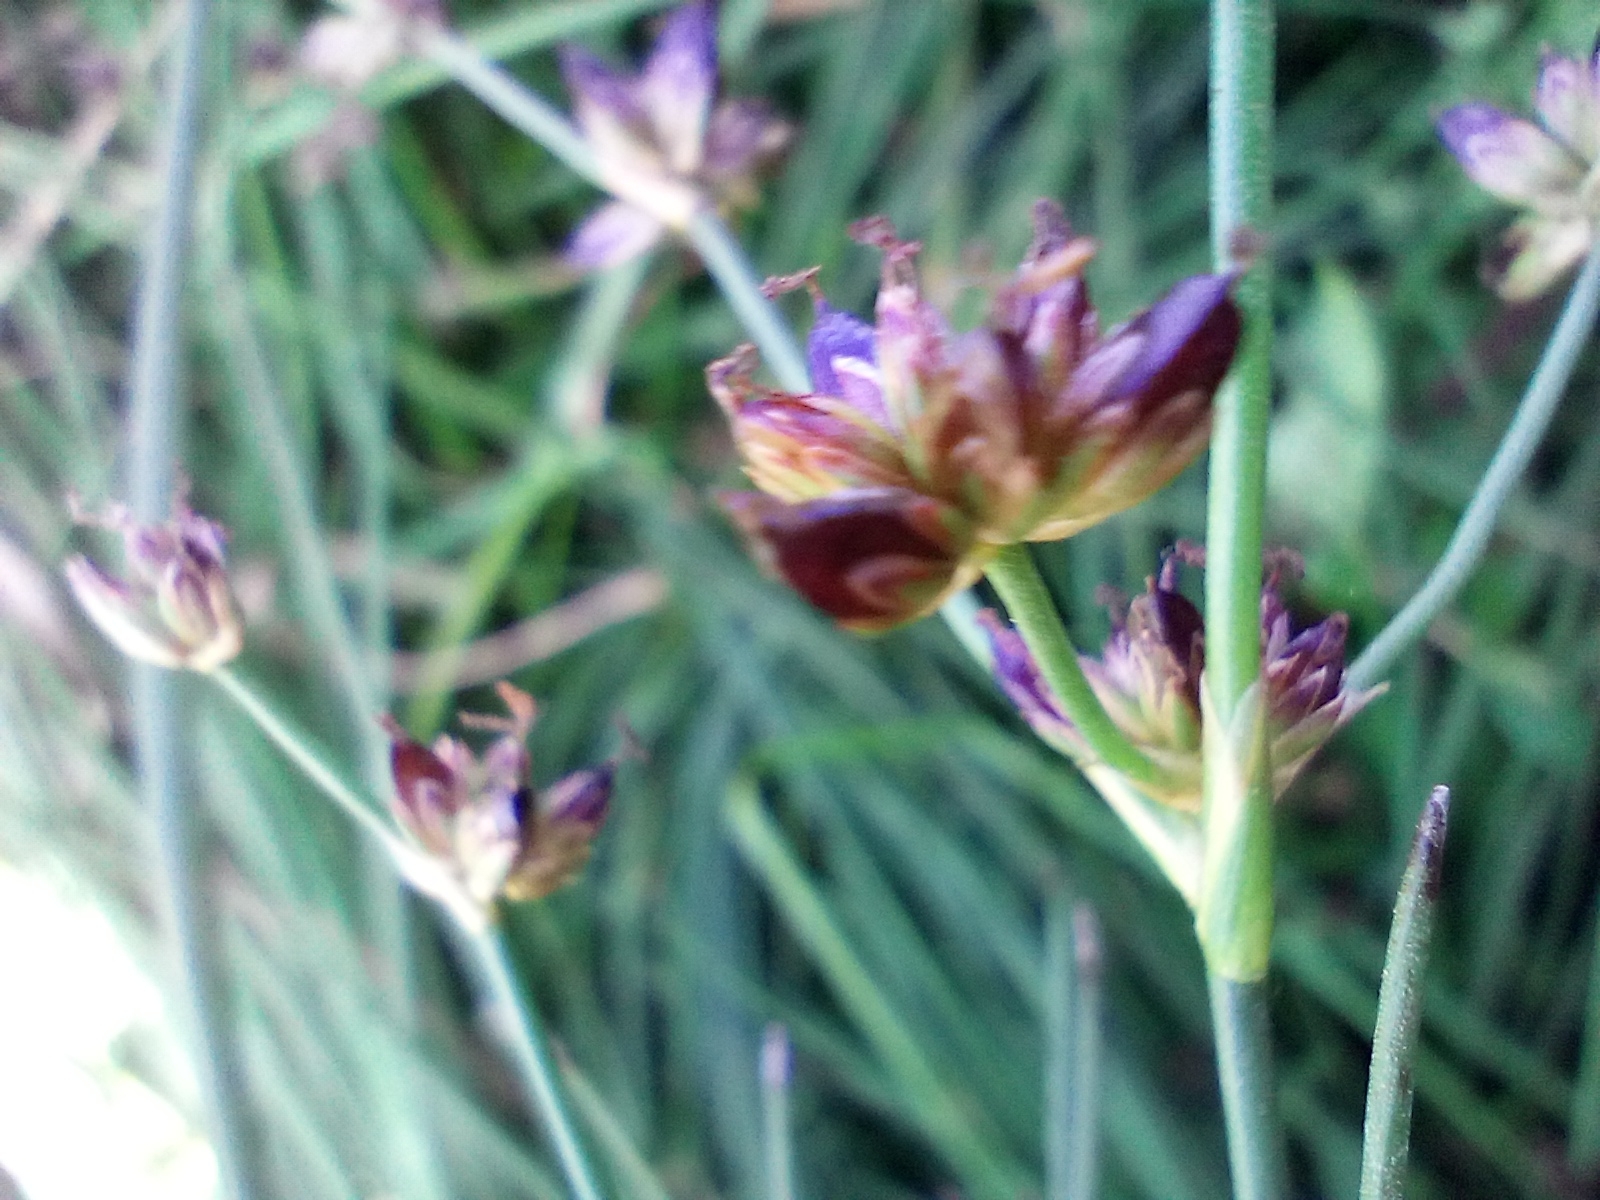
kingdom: Plantae
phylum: Tracheophyta
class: Liliopsida
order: Poales
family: Juncaceae
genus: Juncus
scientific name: Juncus articulatus
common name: Jointed rush
